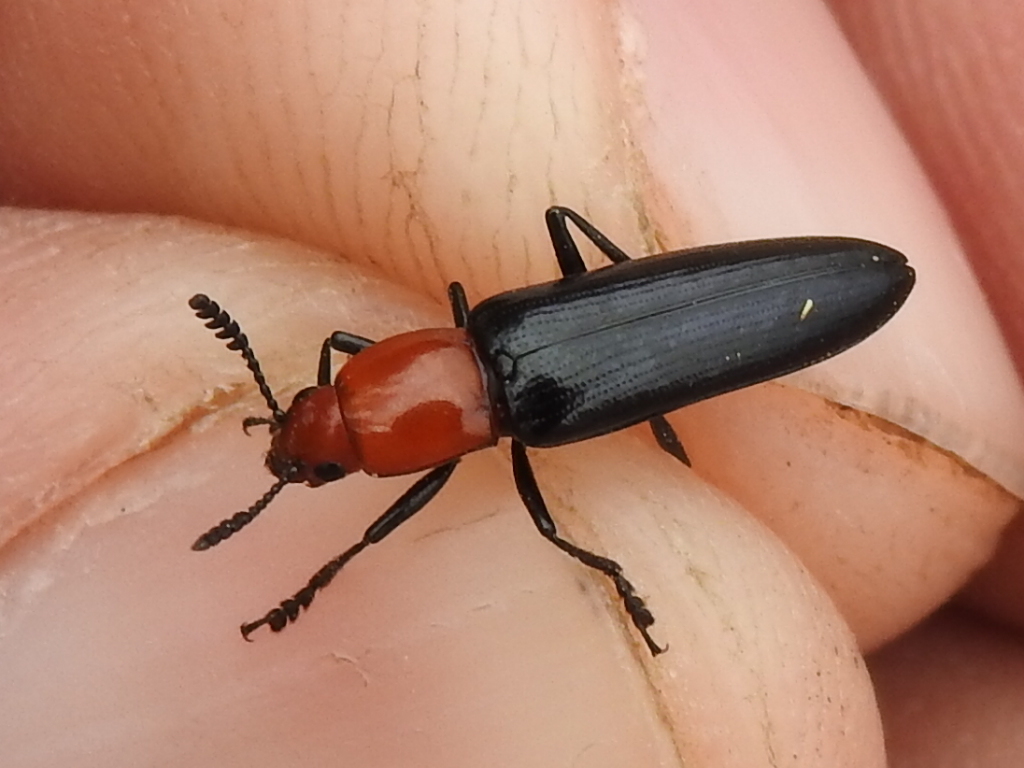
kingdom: Animalia
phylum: Arthropoda
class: Insecta
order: Coleoptera
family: Erotylidae
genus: Languria
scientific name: Languria laeta
